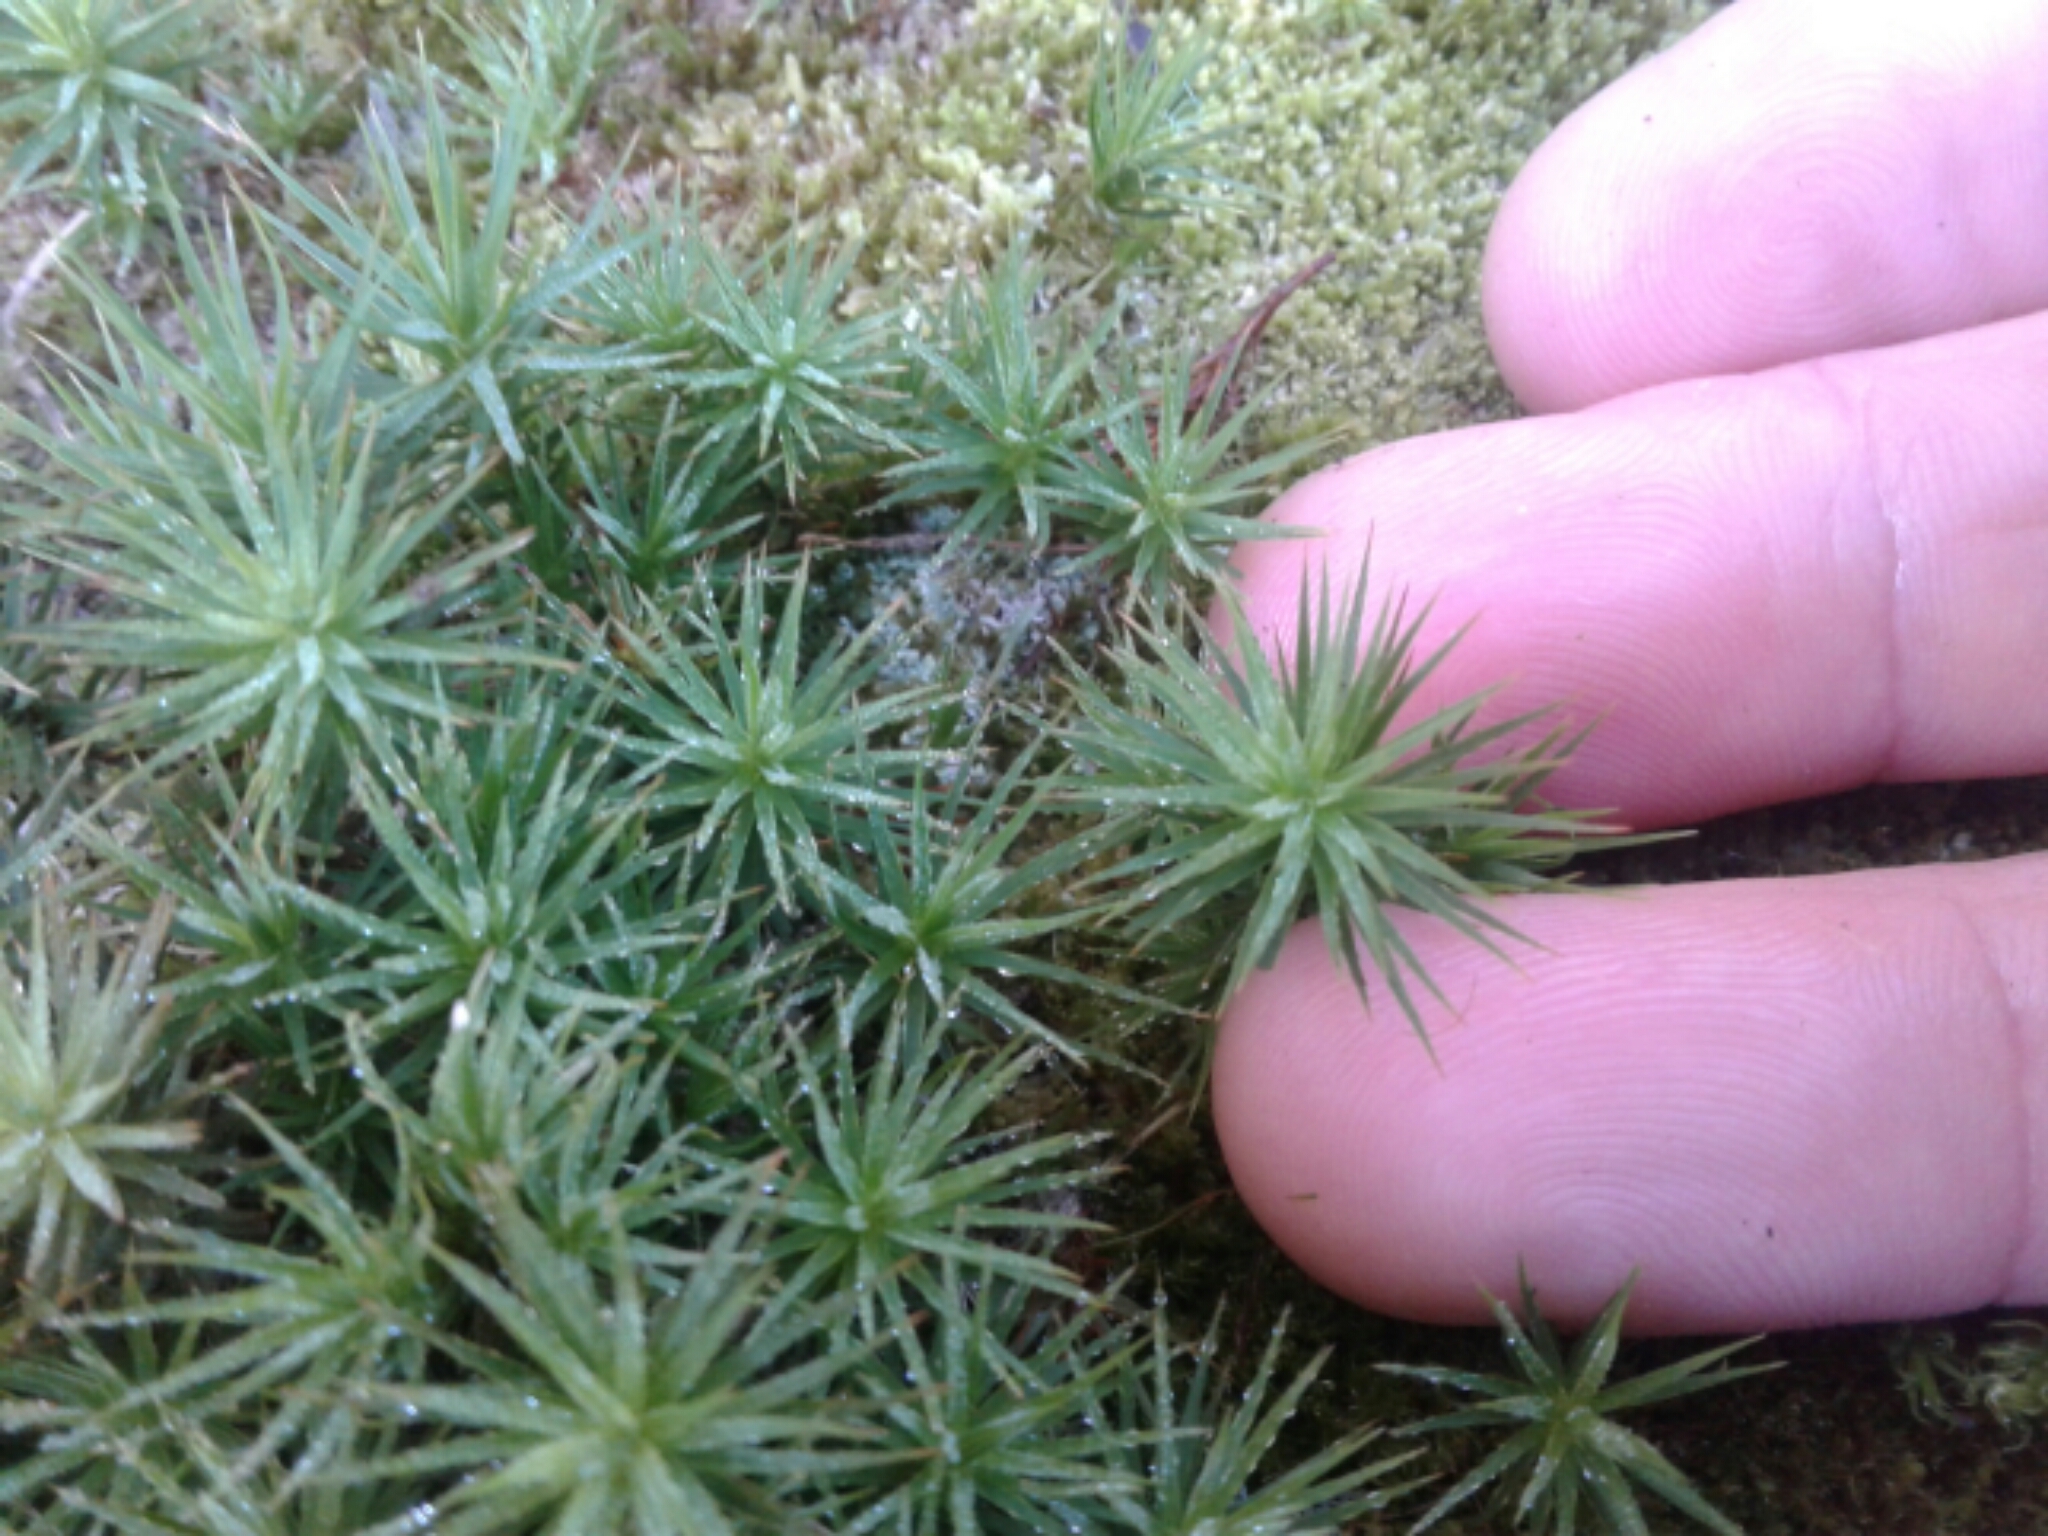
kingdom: Plantae
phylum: Bryophyta
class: Polytrichopsida
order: Polytrichales
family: Polytrichaceae
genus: Polytrichum
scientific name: Polytrichum
